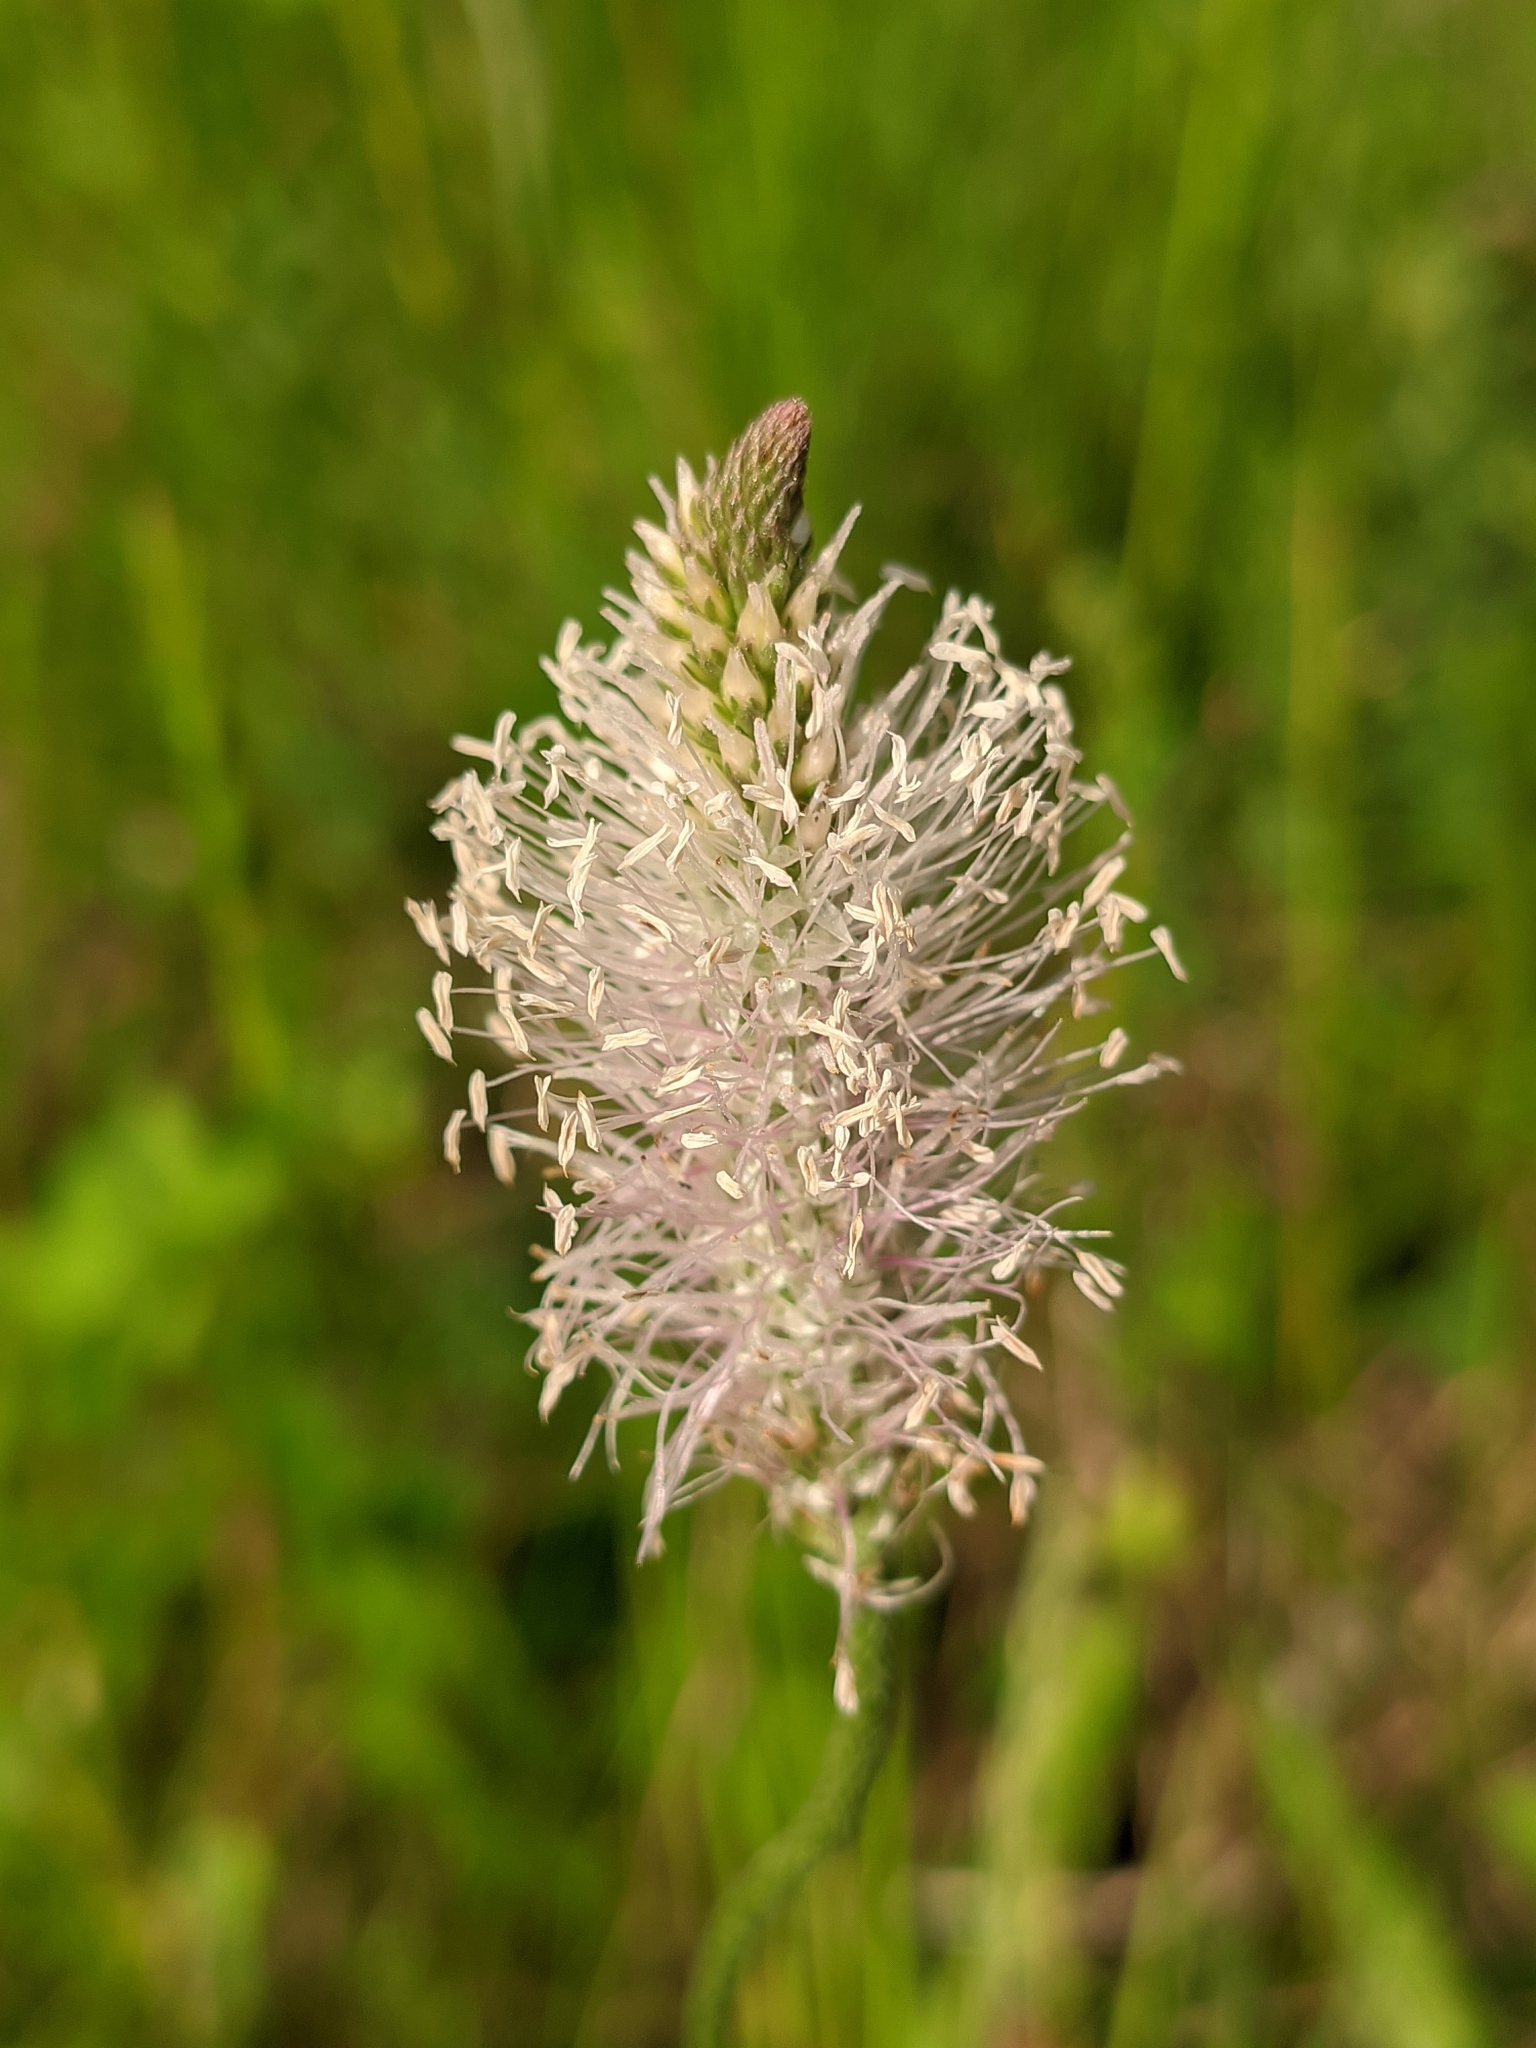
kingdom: Plantae
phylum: Tracheophyta
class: Magnoliopsida
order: Lamiales
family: Plantaginaceae
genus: Plantago
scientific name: Plantago media
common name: Hoary plantain
